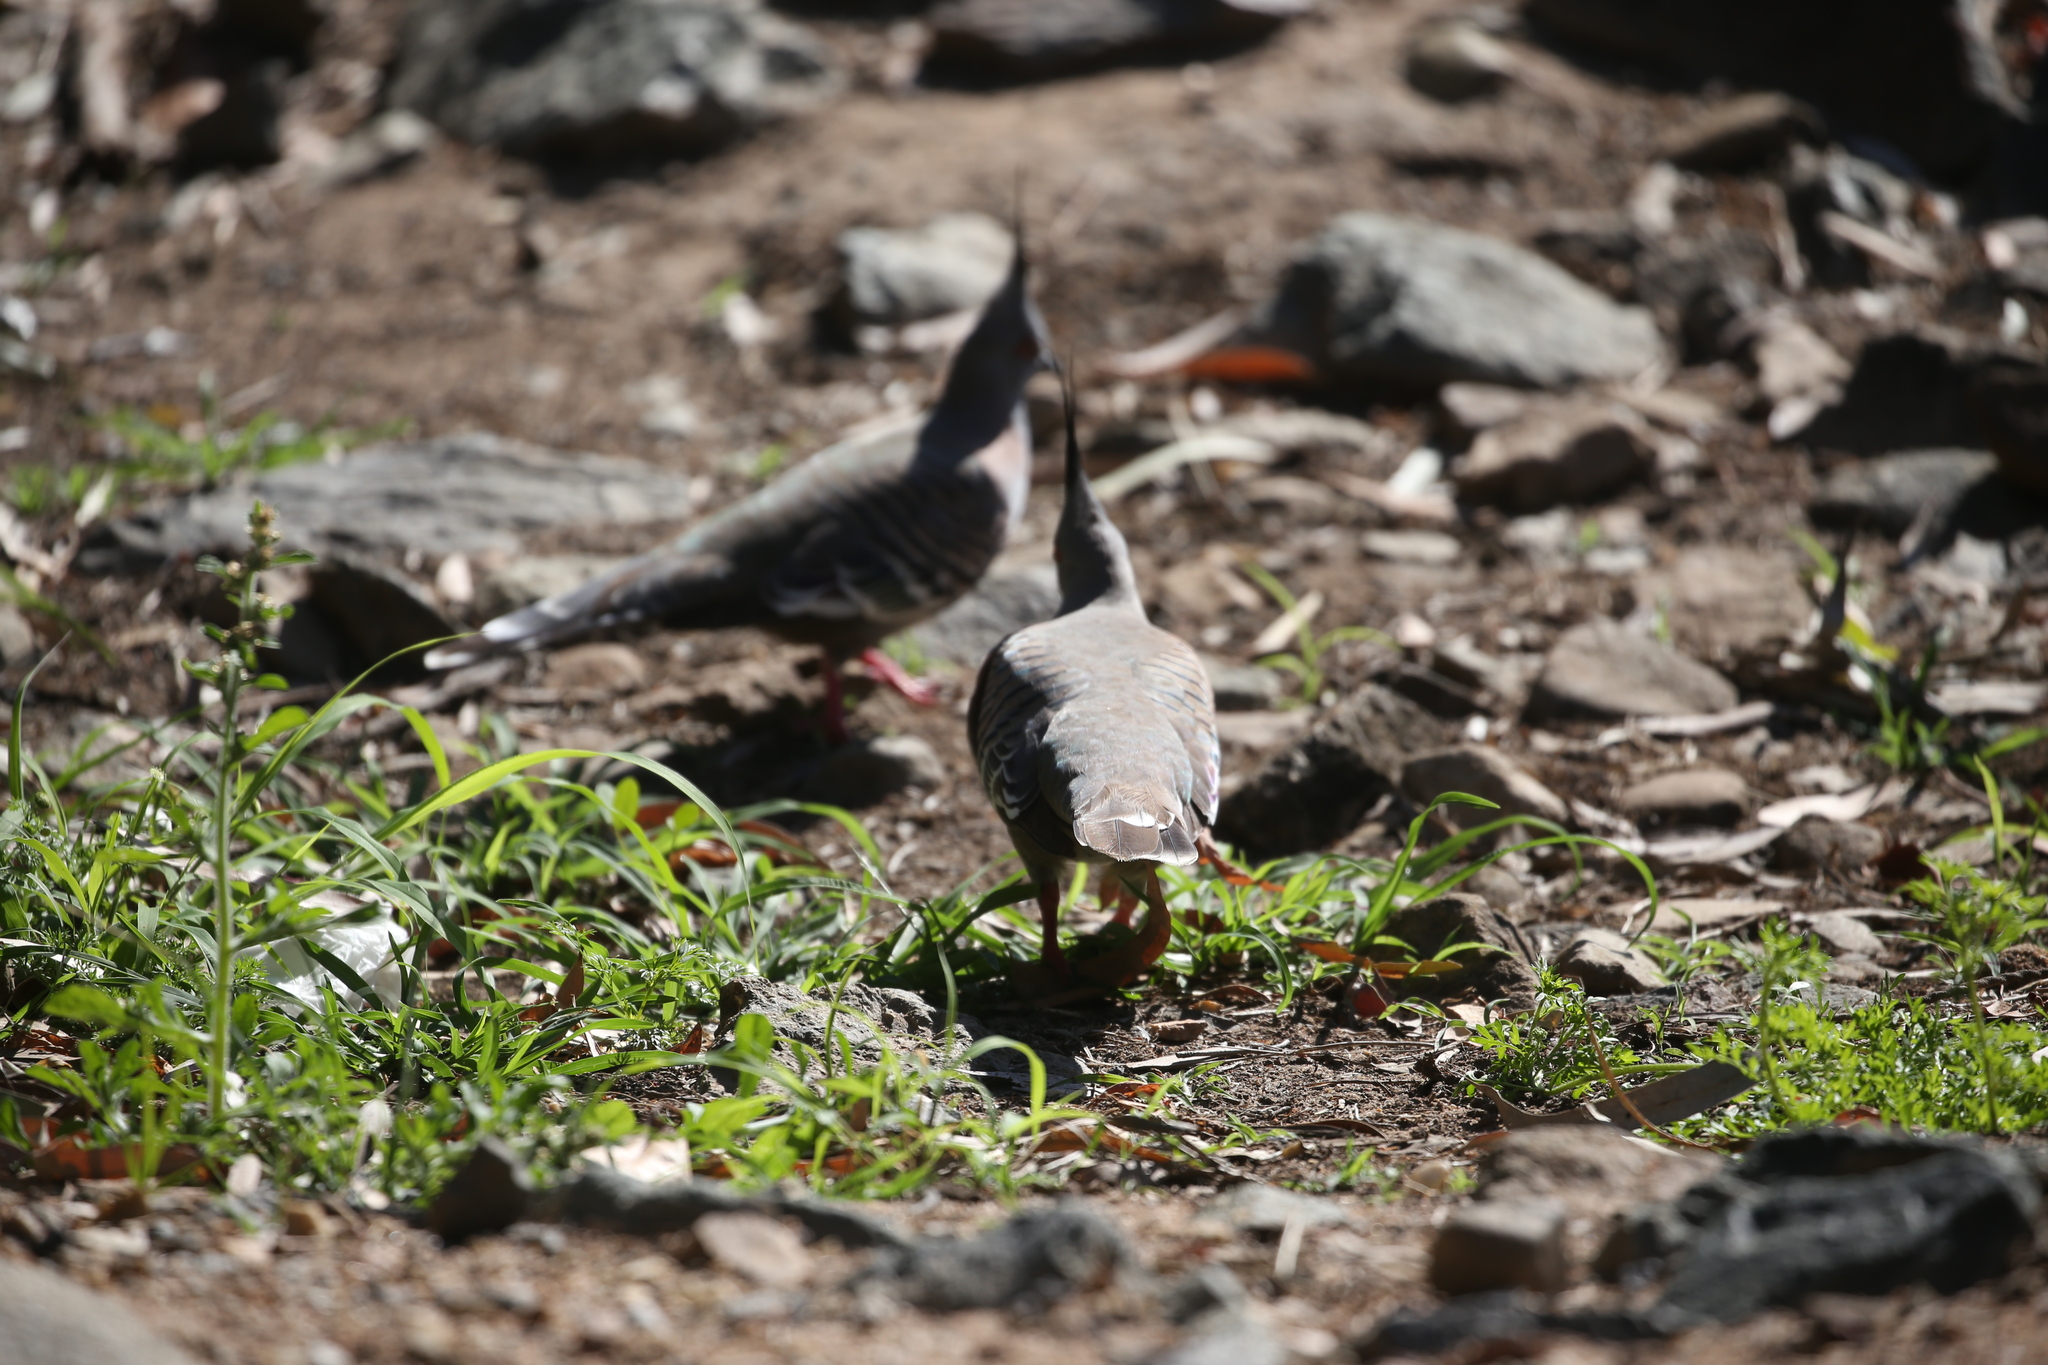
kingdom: Animalia
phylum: Chordata
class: Aves
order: Columbiformes
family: Columbidae
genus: Ocyphaps
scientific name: Ocyphaps lophotes
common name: Crested pigeon
